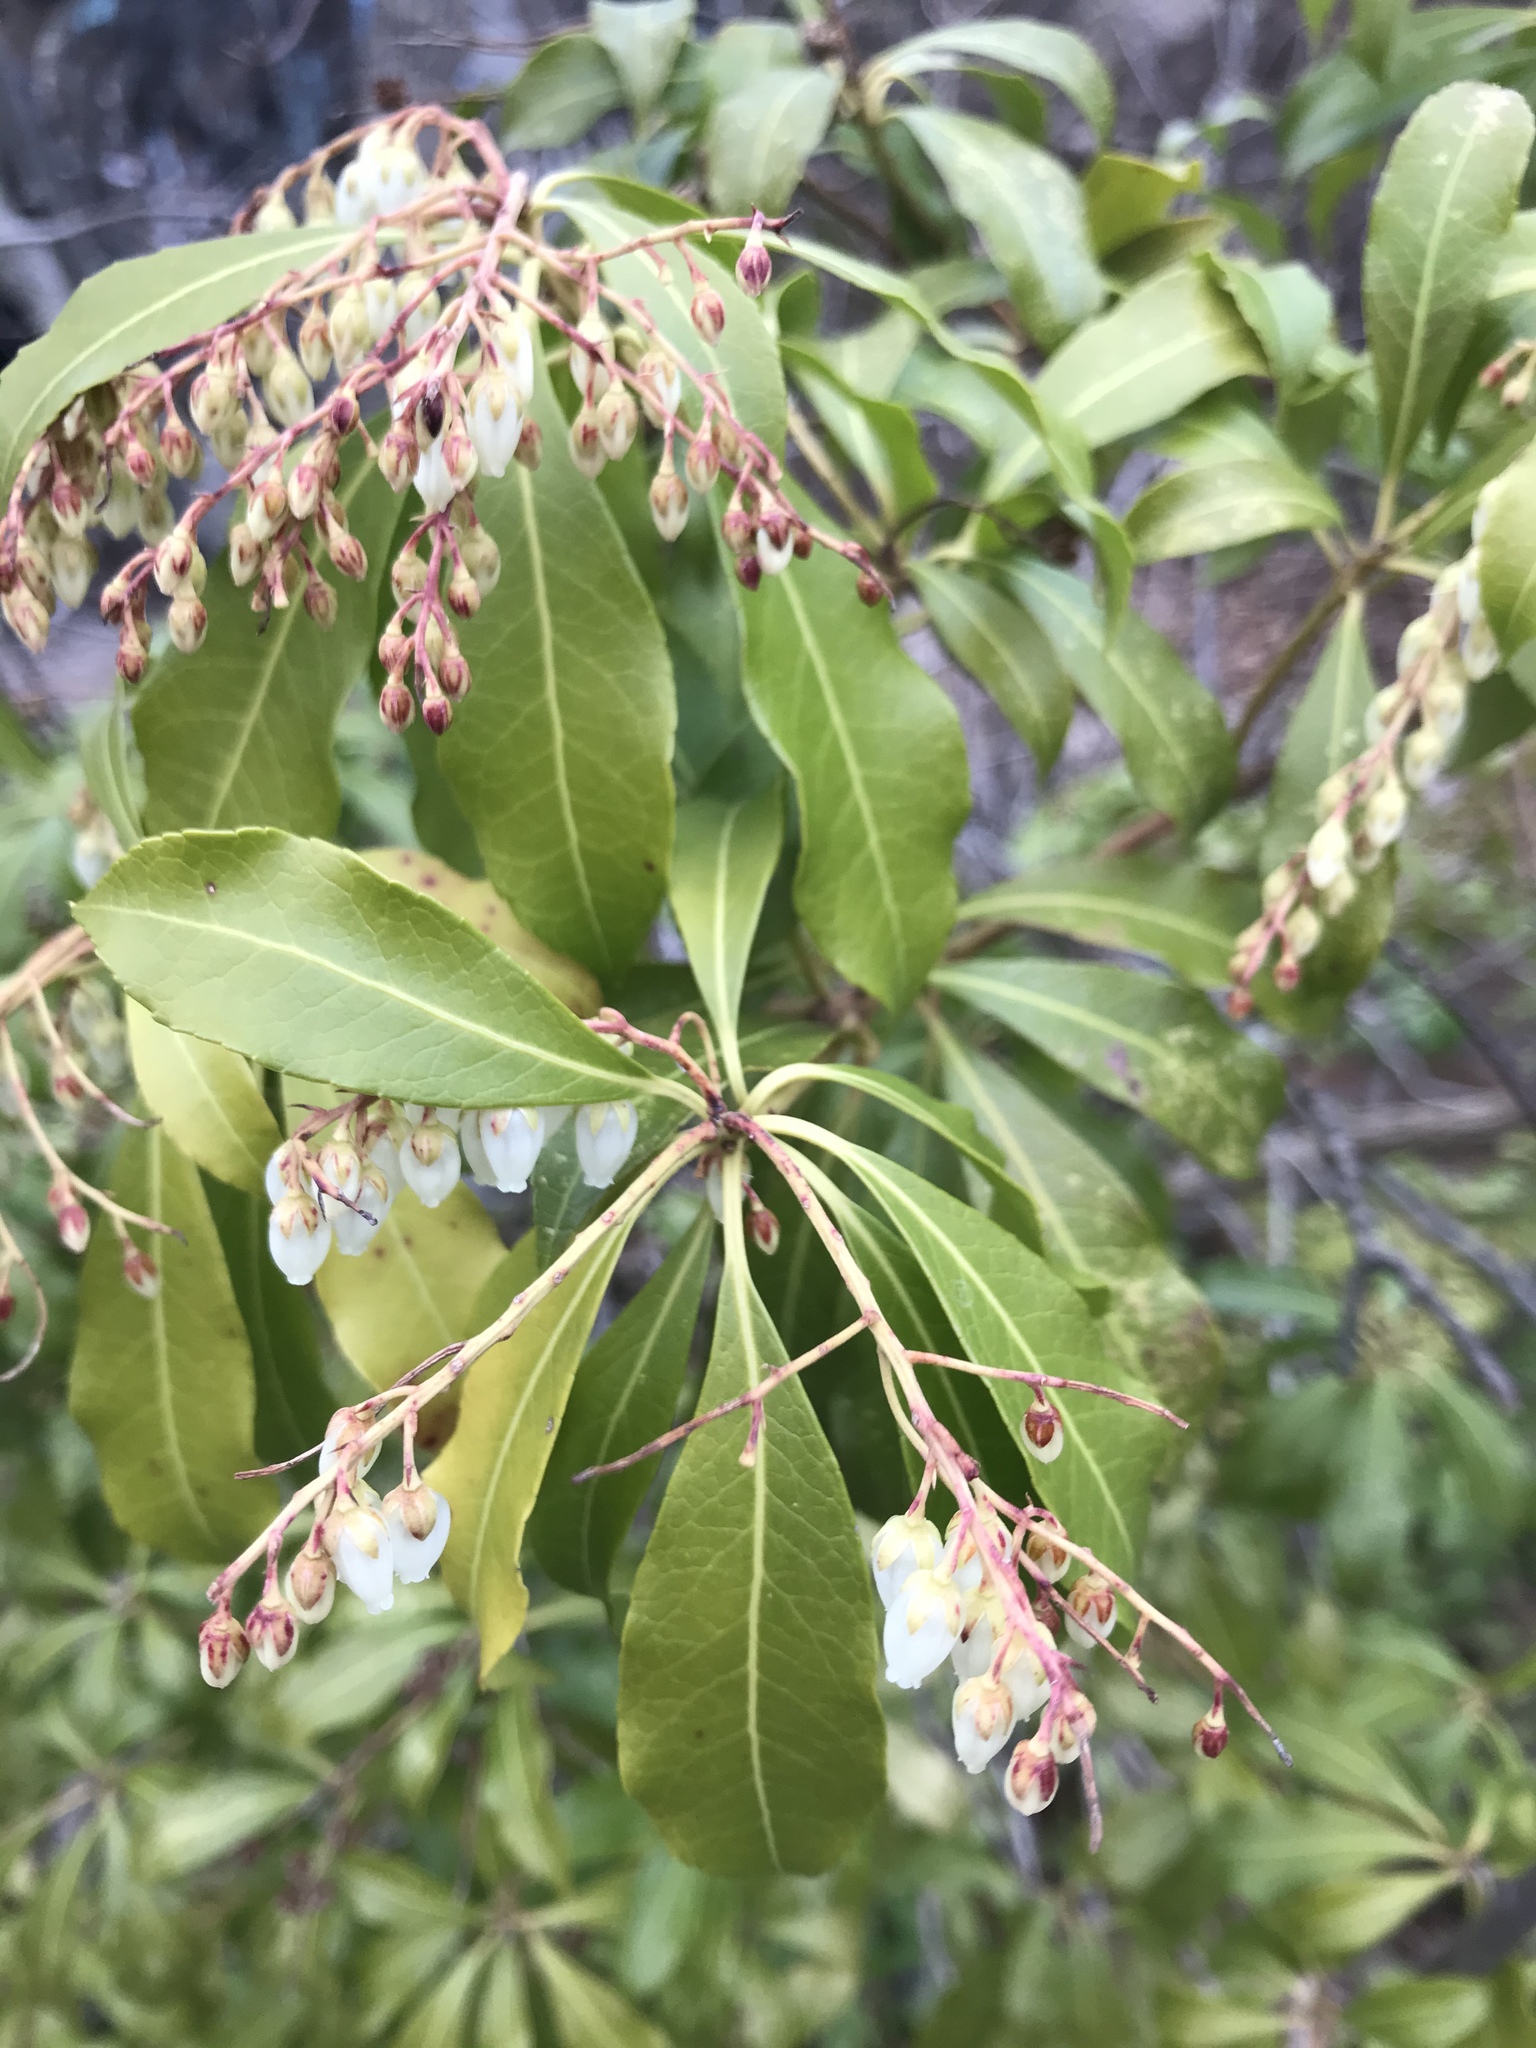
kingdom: Plantae
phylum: Tracheophyta
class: Magnoliopsida
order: Ericales
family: Ericaceae
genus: Pieris
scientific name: Pieris japonica
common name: Japanese pieris
